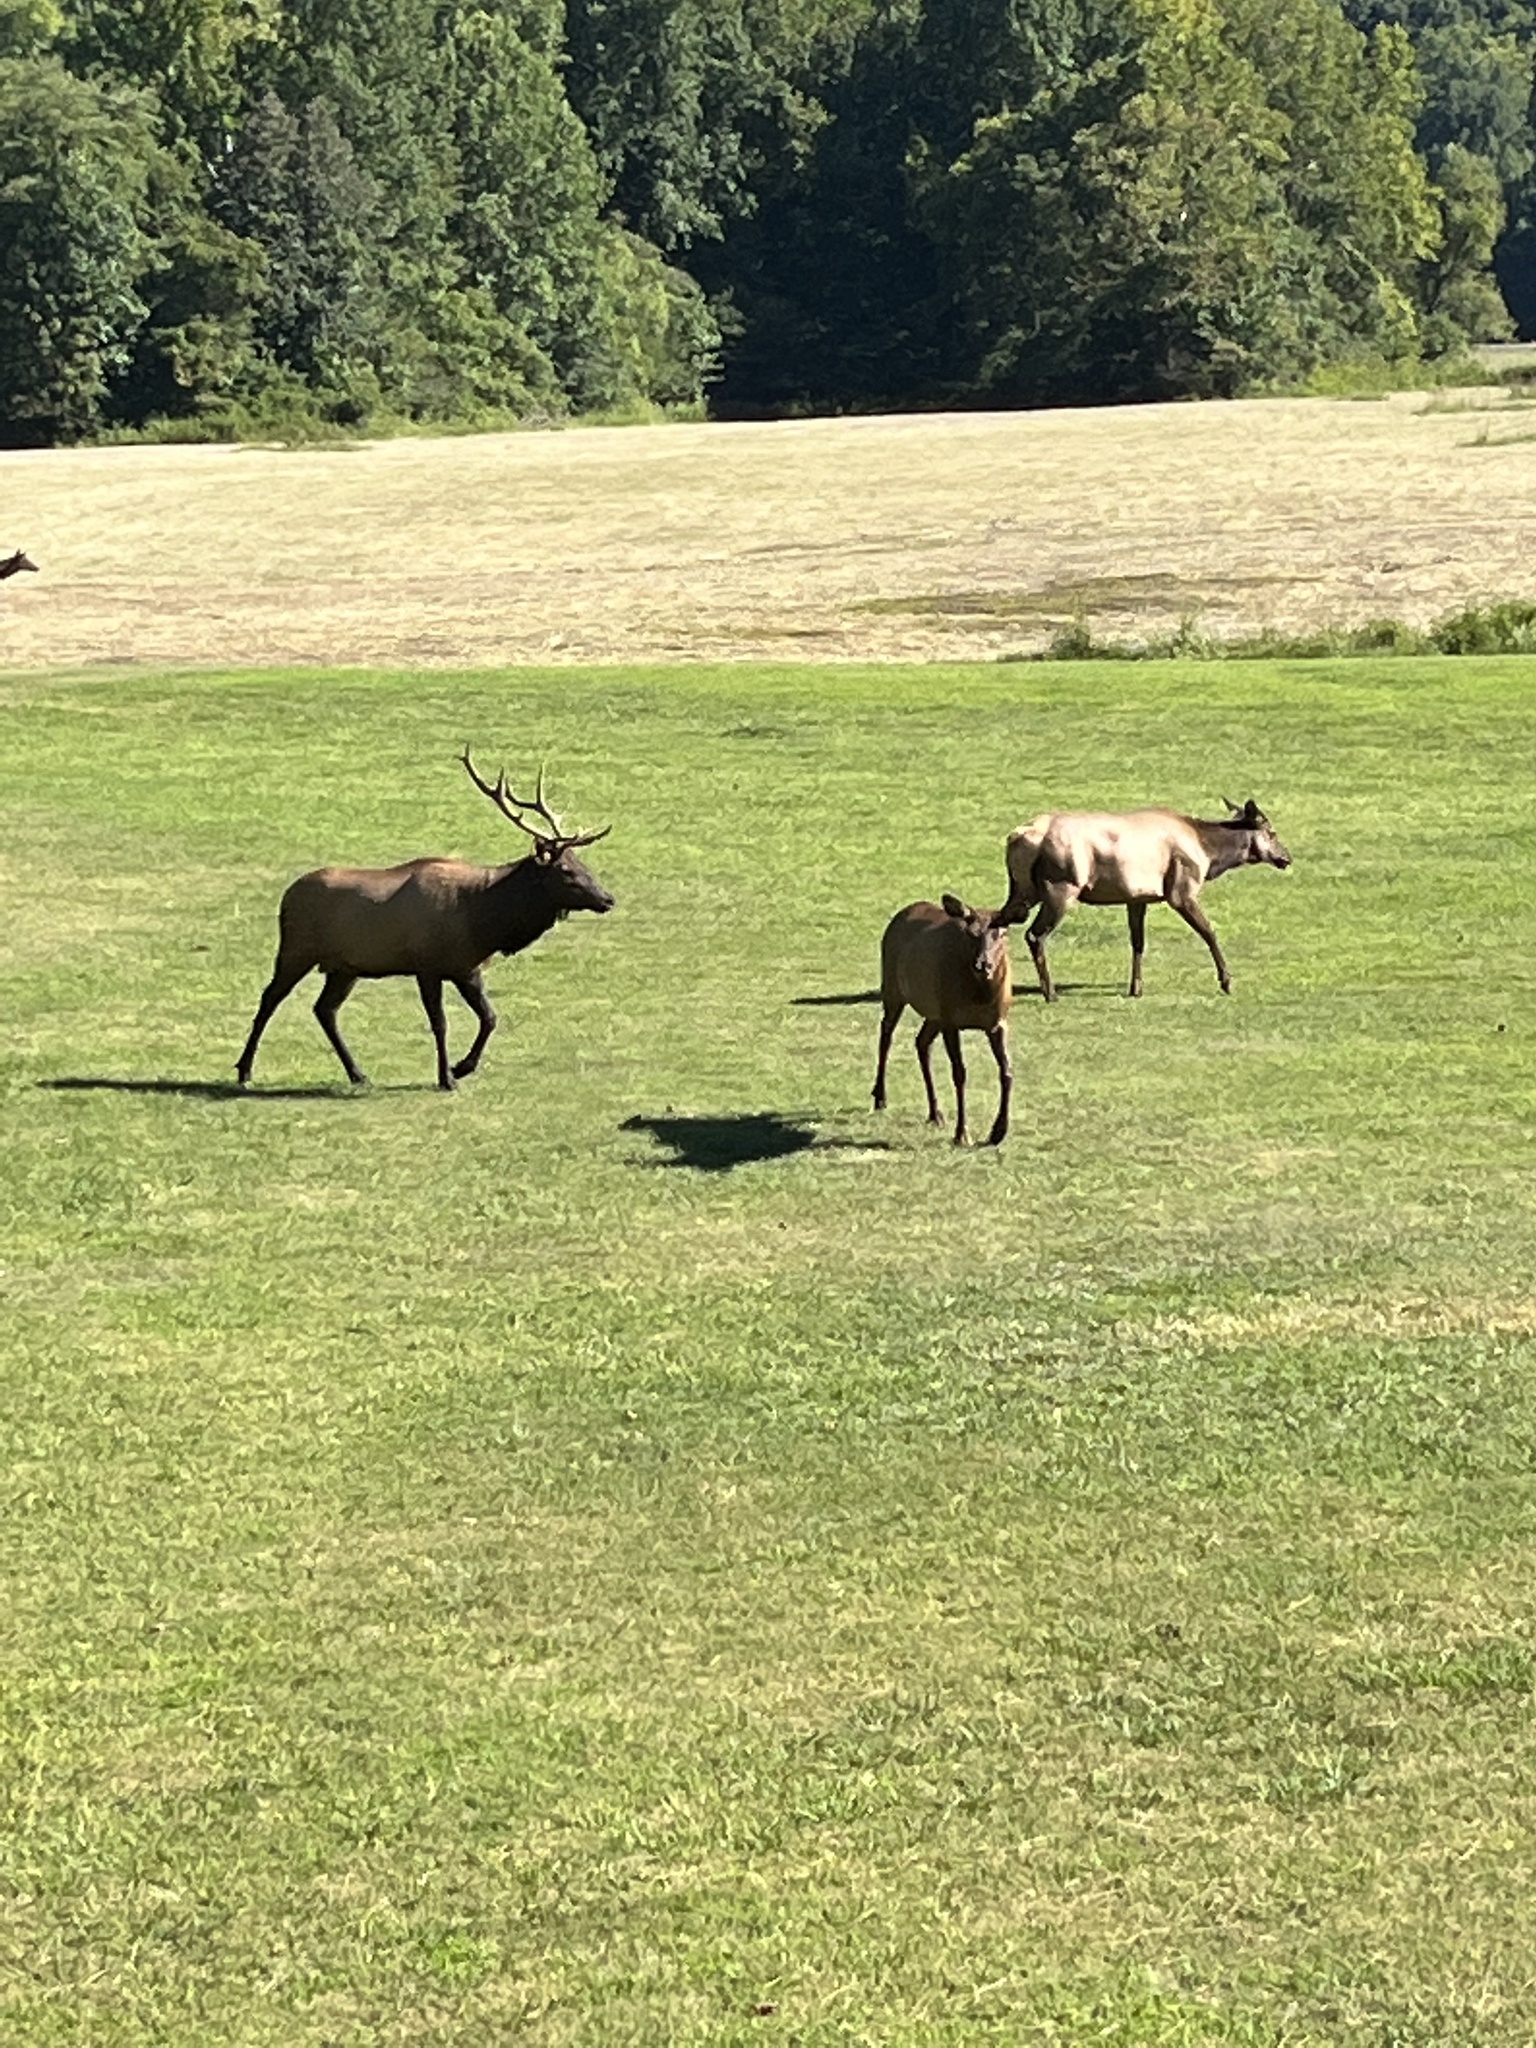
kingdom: Animalia
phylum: Chordata
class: Mammalia
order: Artiodactyla
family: Cervidae
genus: Cervus
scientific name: Cervus elaphus
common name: Red deer
